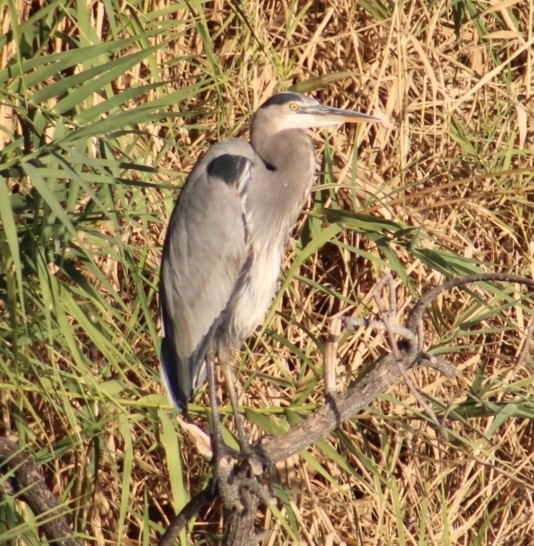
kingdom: Animalia
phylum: Chordata
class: Aves
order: Pelecaniformes
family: Ardeidae
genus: Ardea
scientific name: Ardea herodias
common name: Great blue heron
